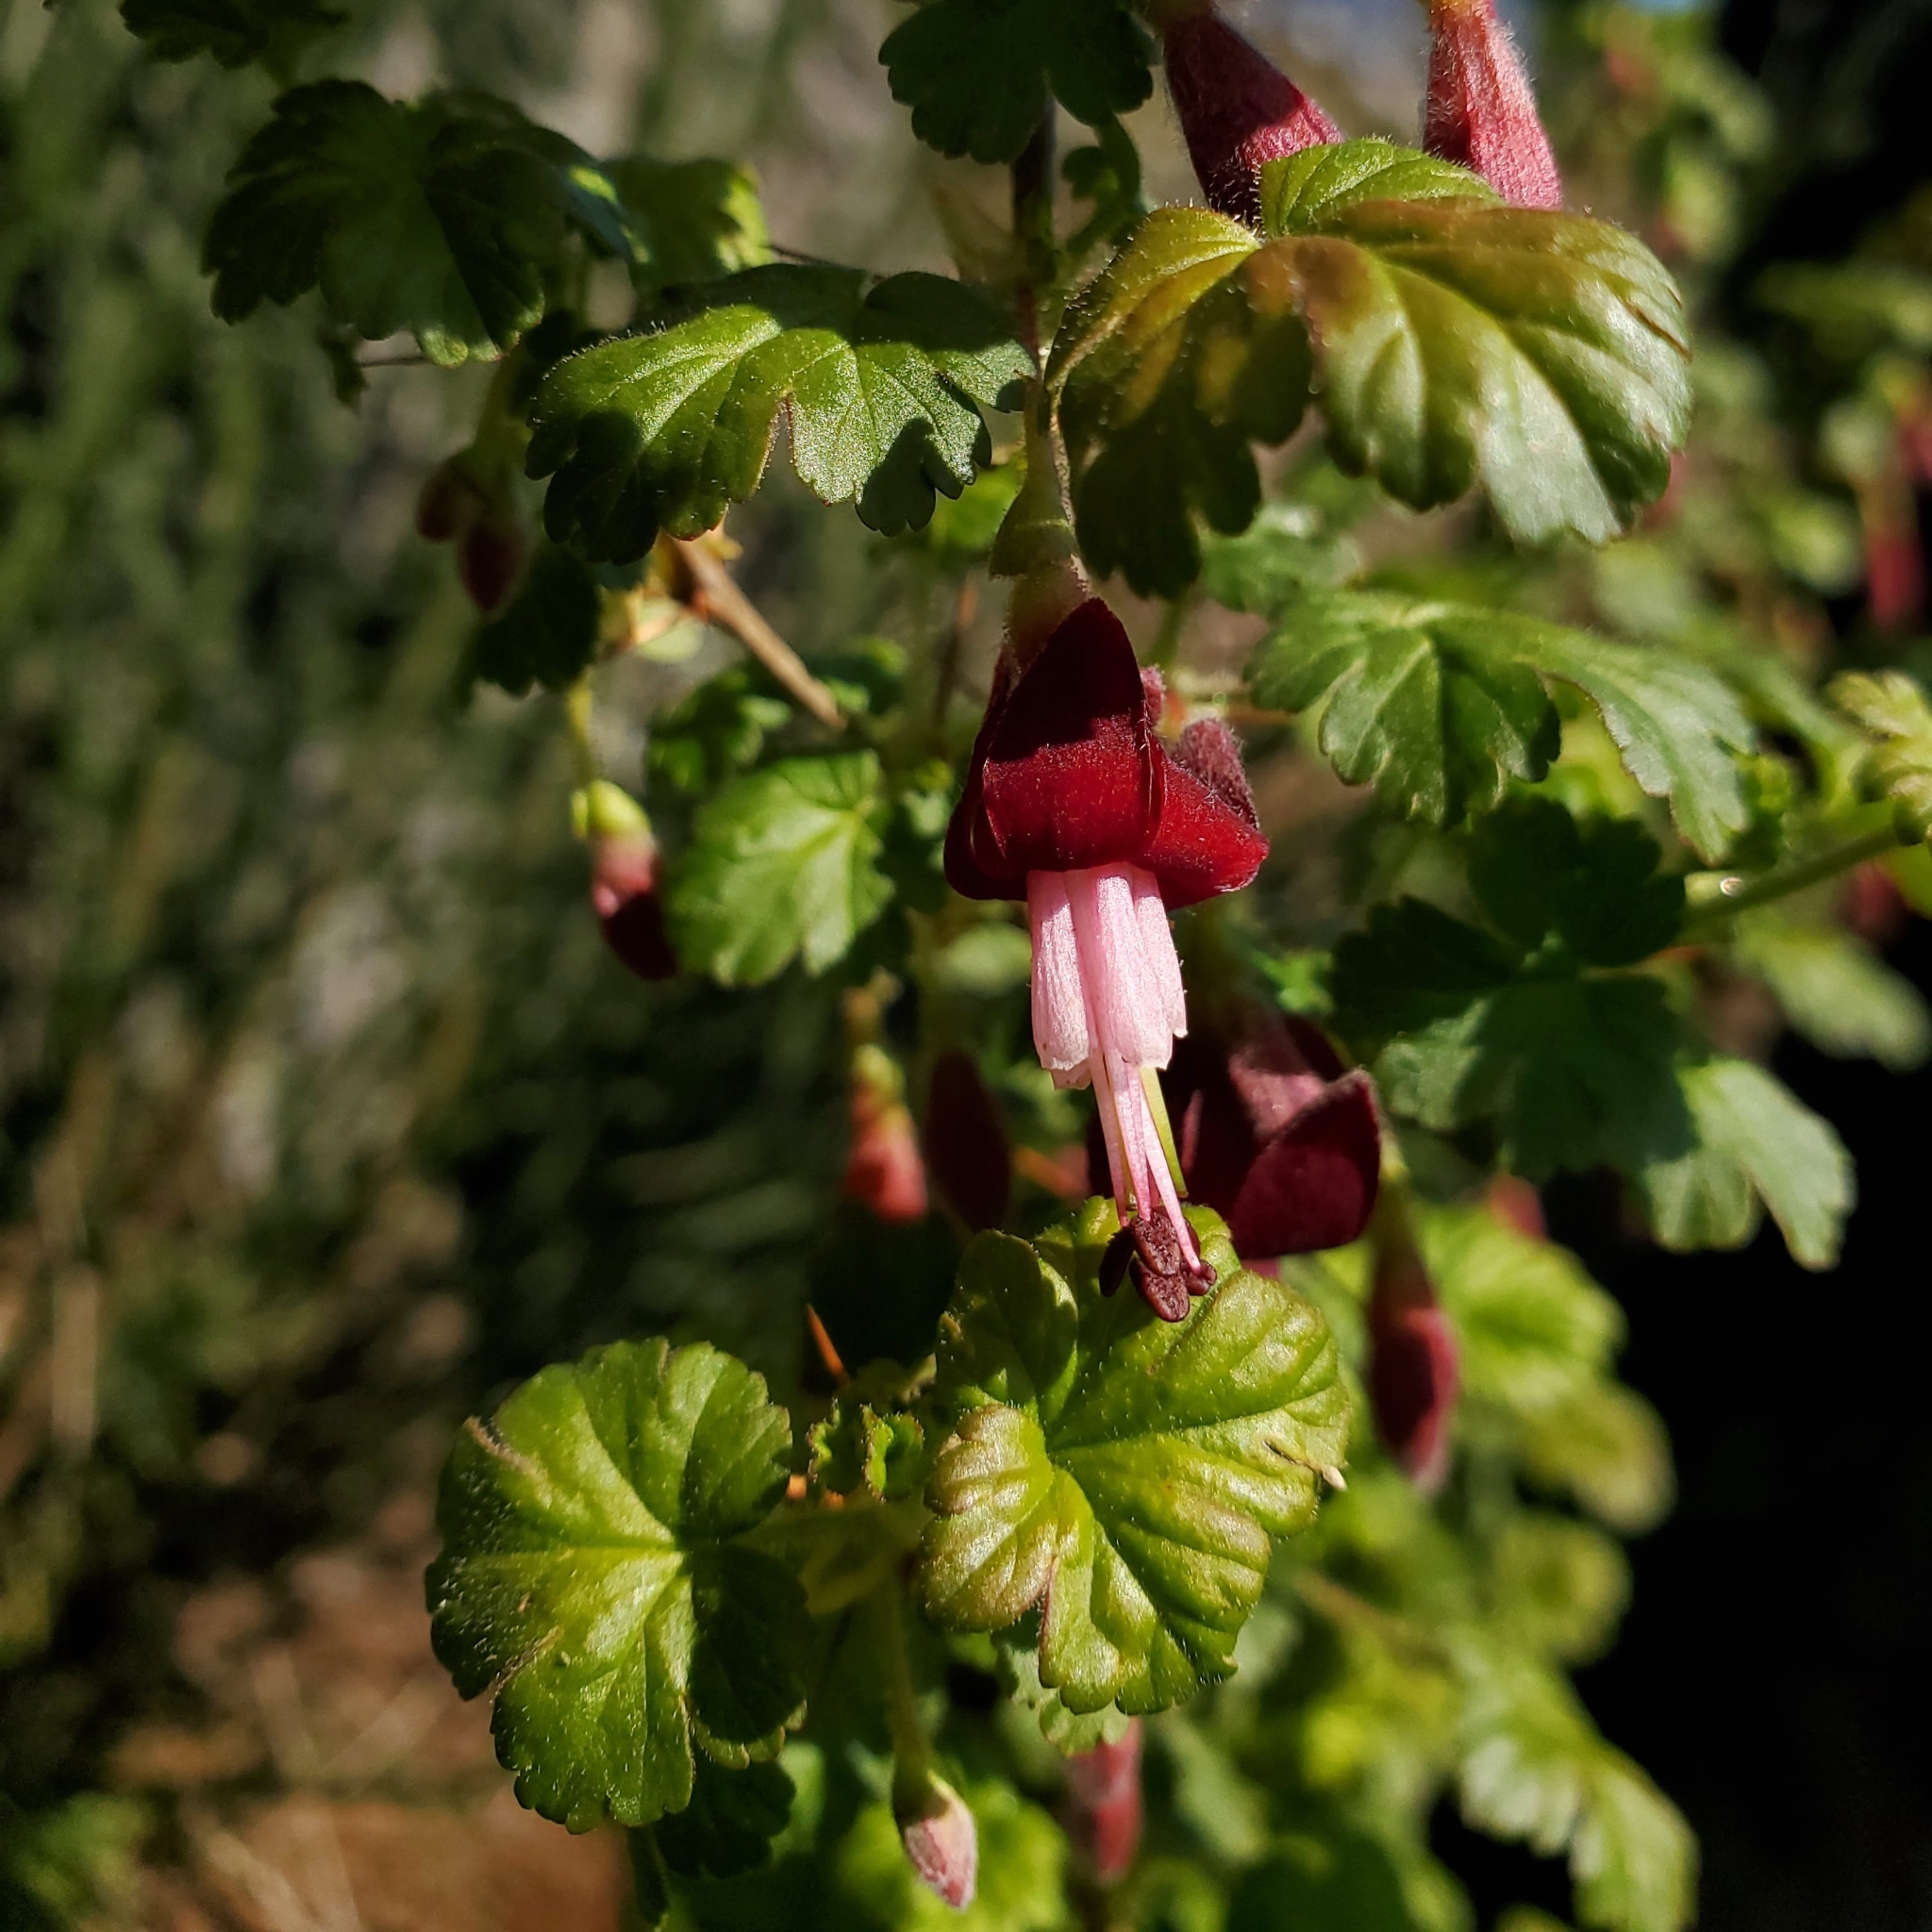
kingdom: Plantae
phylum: Tracheophyta
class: Magnoliopsida
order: Saxifragales
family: Grossulariaceae
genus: Ribes
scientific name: Ribes lobbii
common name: Gummy gooseberry
